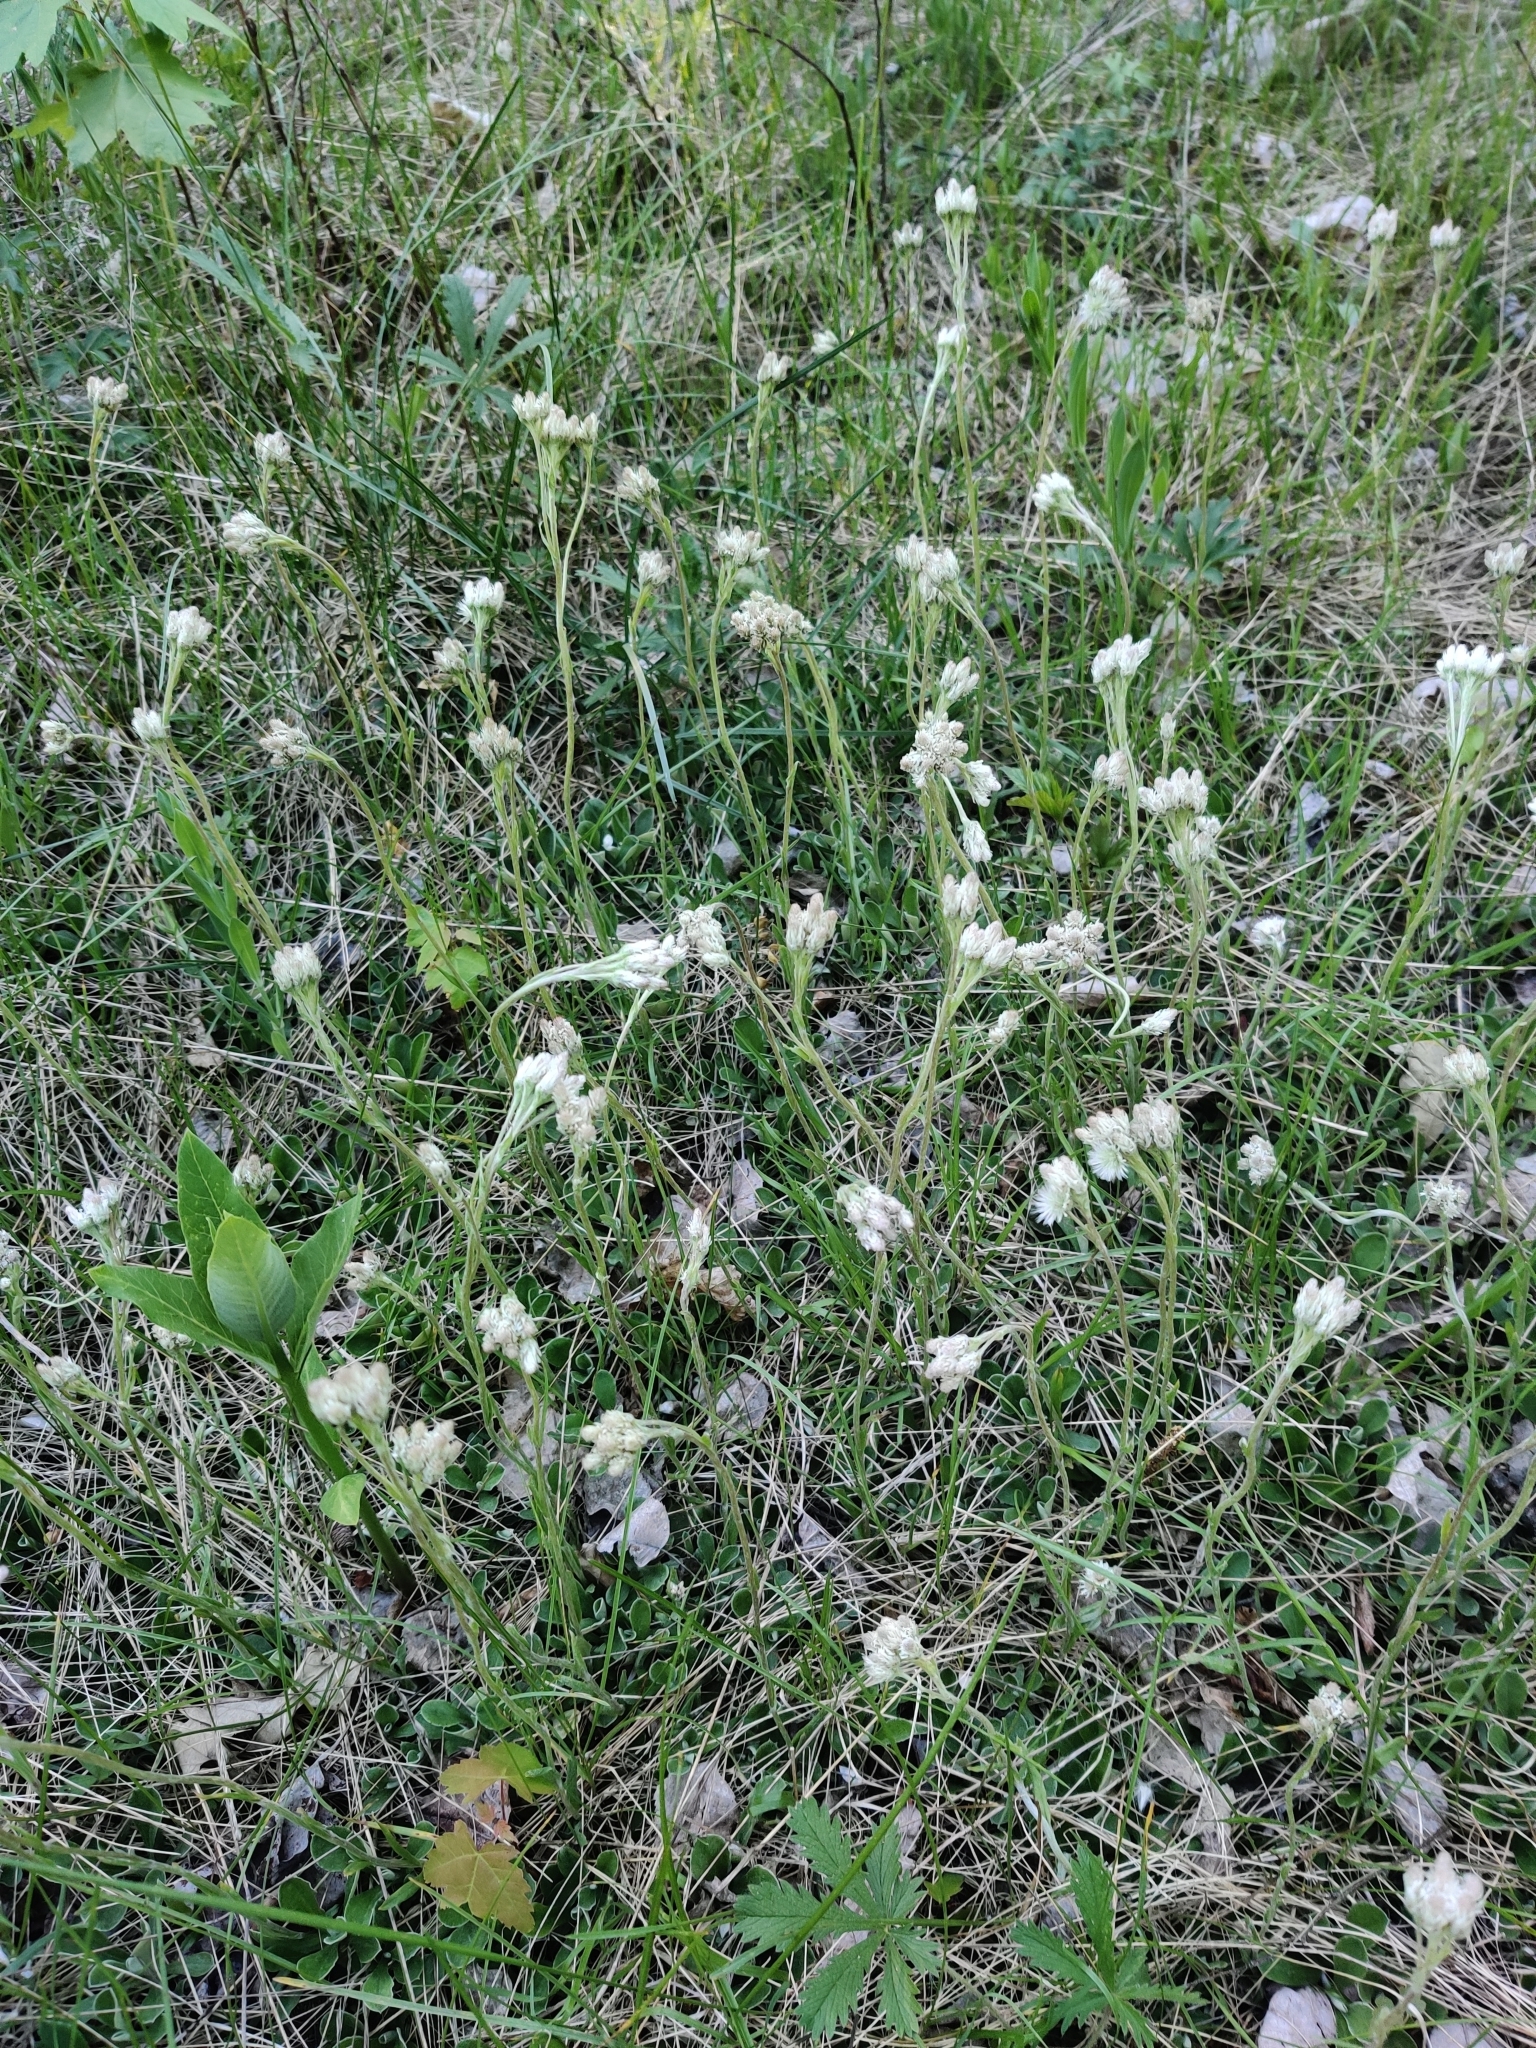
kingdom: Plantae
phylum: Tracheophyta
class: Magnoliopsida
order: Asterales
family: Asteraceae
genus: Antennaria
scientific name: Antennaria neglecta
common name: Field pussytoes
